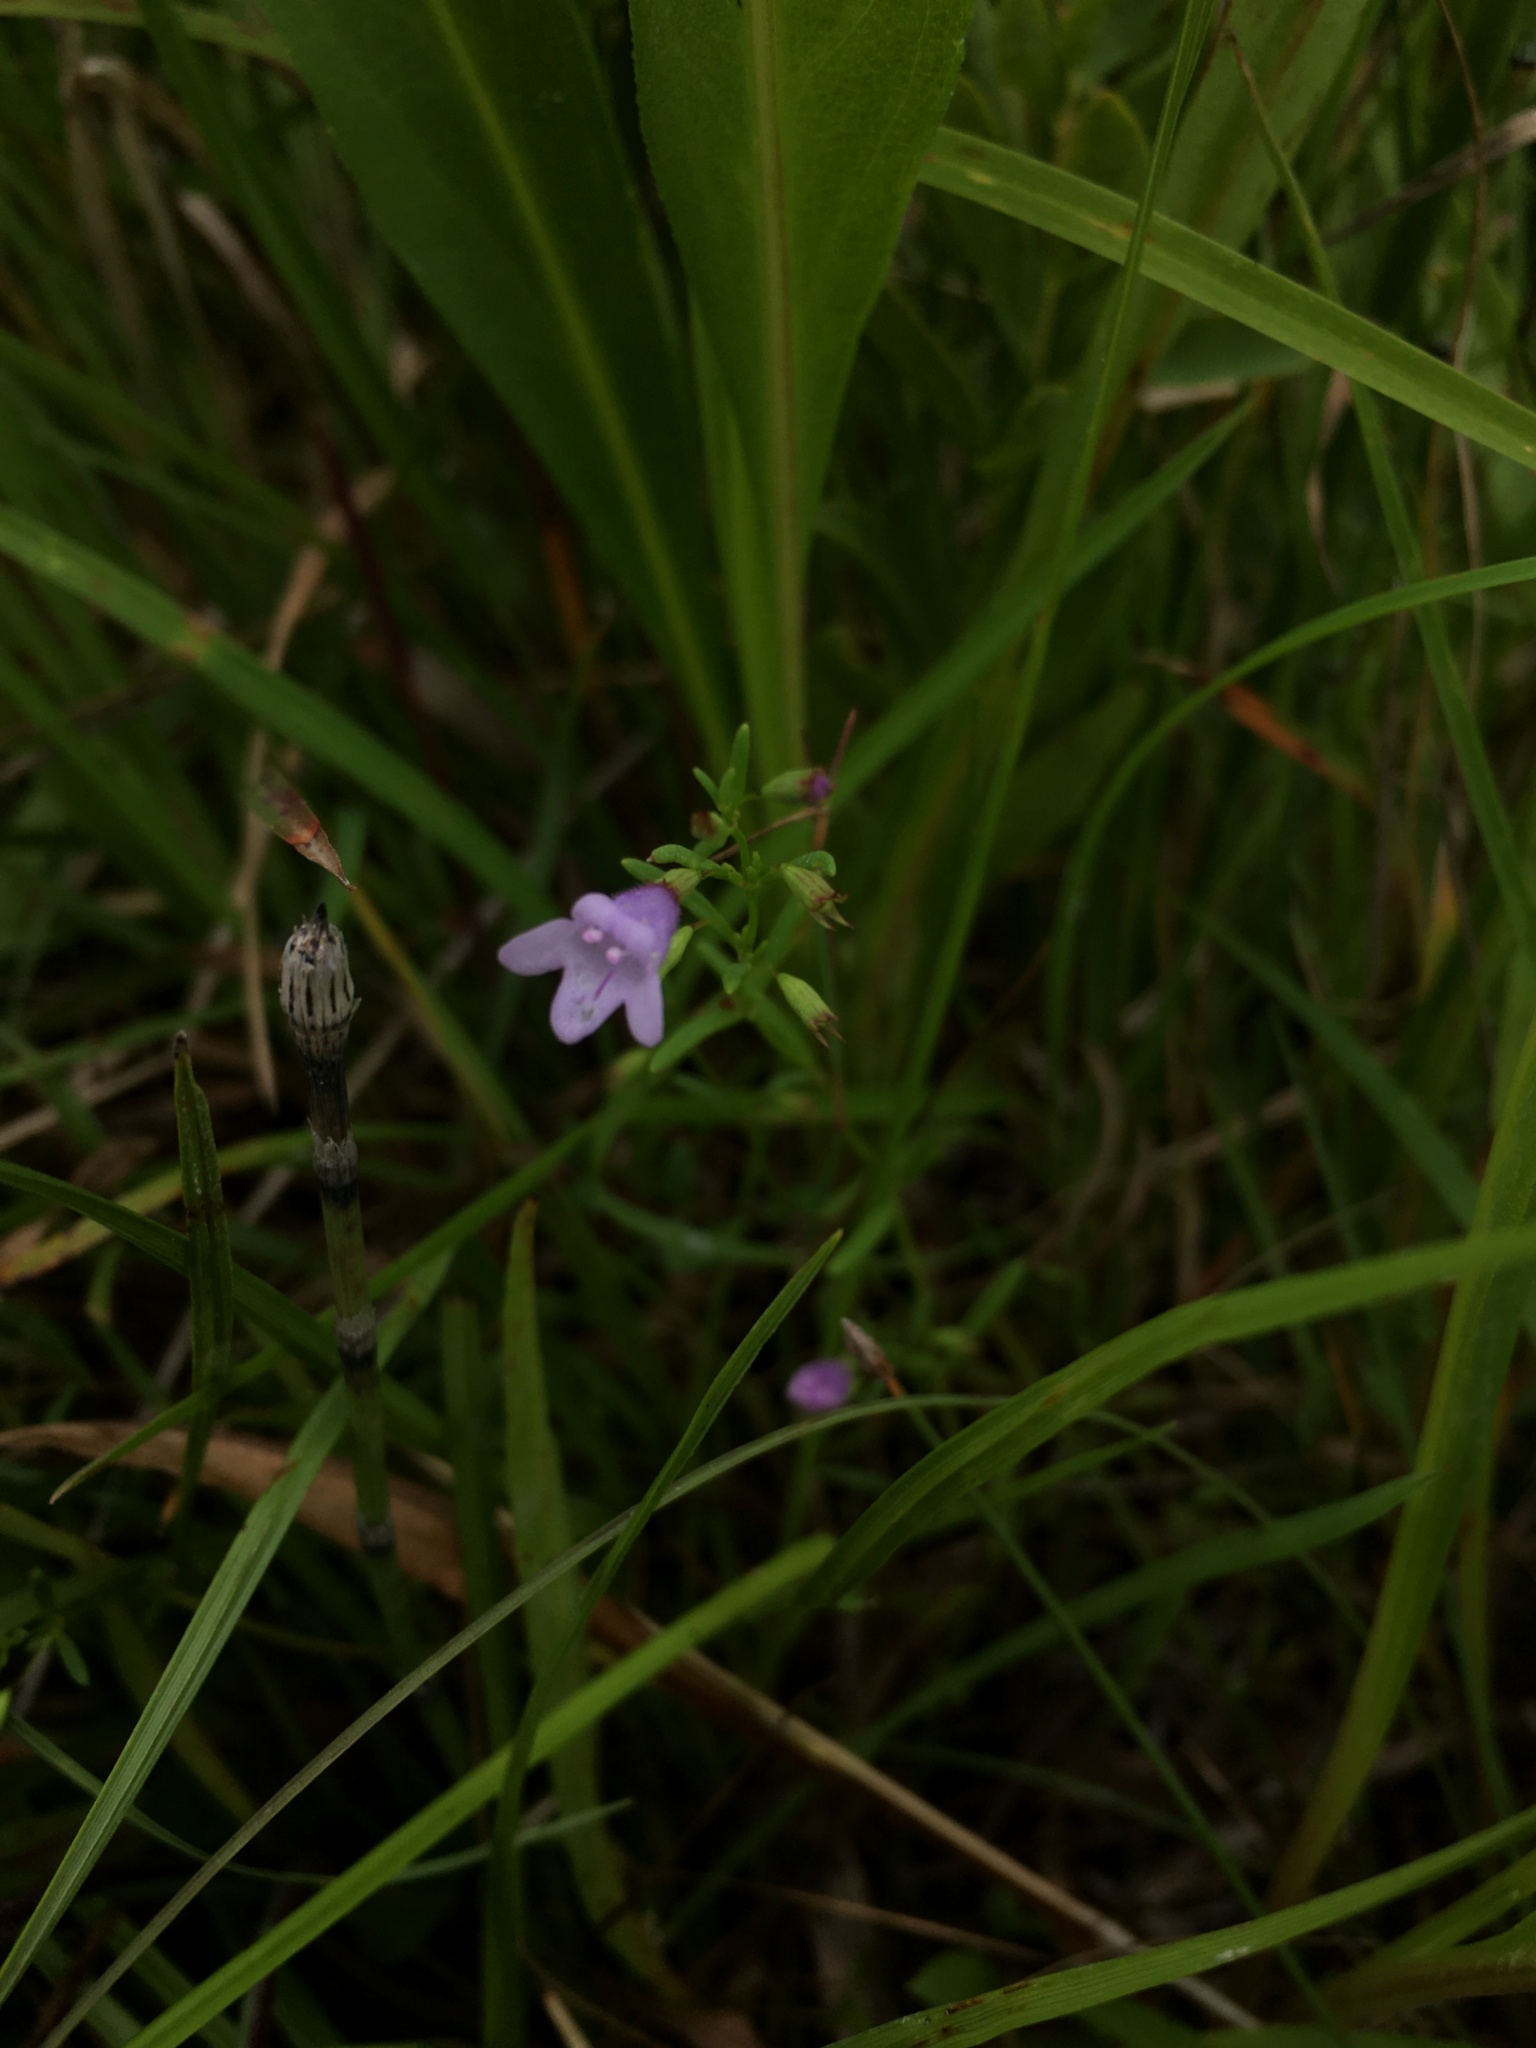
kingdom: Plantae
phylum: Tracheophyta
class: Magnoliopsida
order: Lamiales
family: Lamiaceae
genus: Clinopodium
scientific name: Clinopodium arkansanum
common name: Limestone calamint
